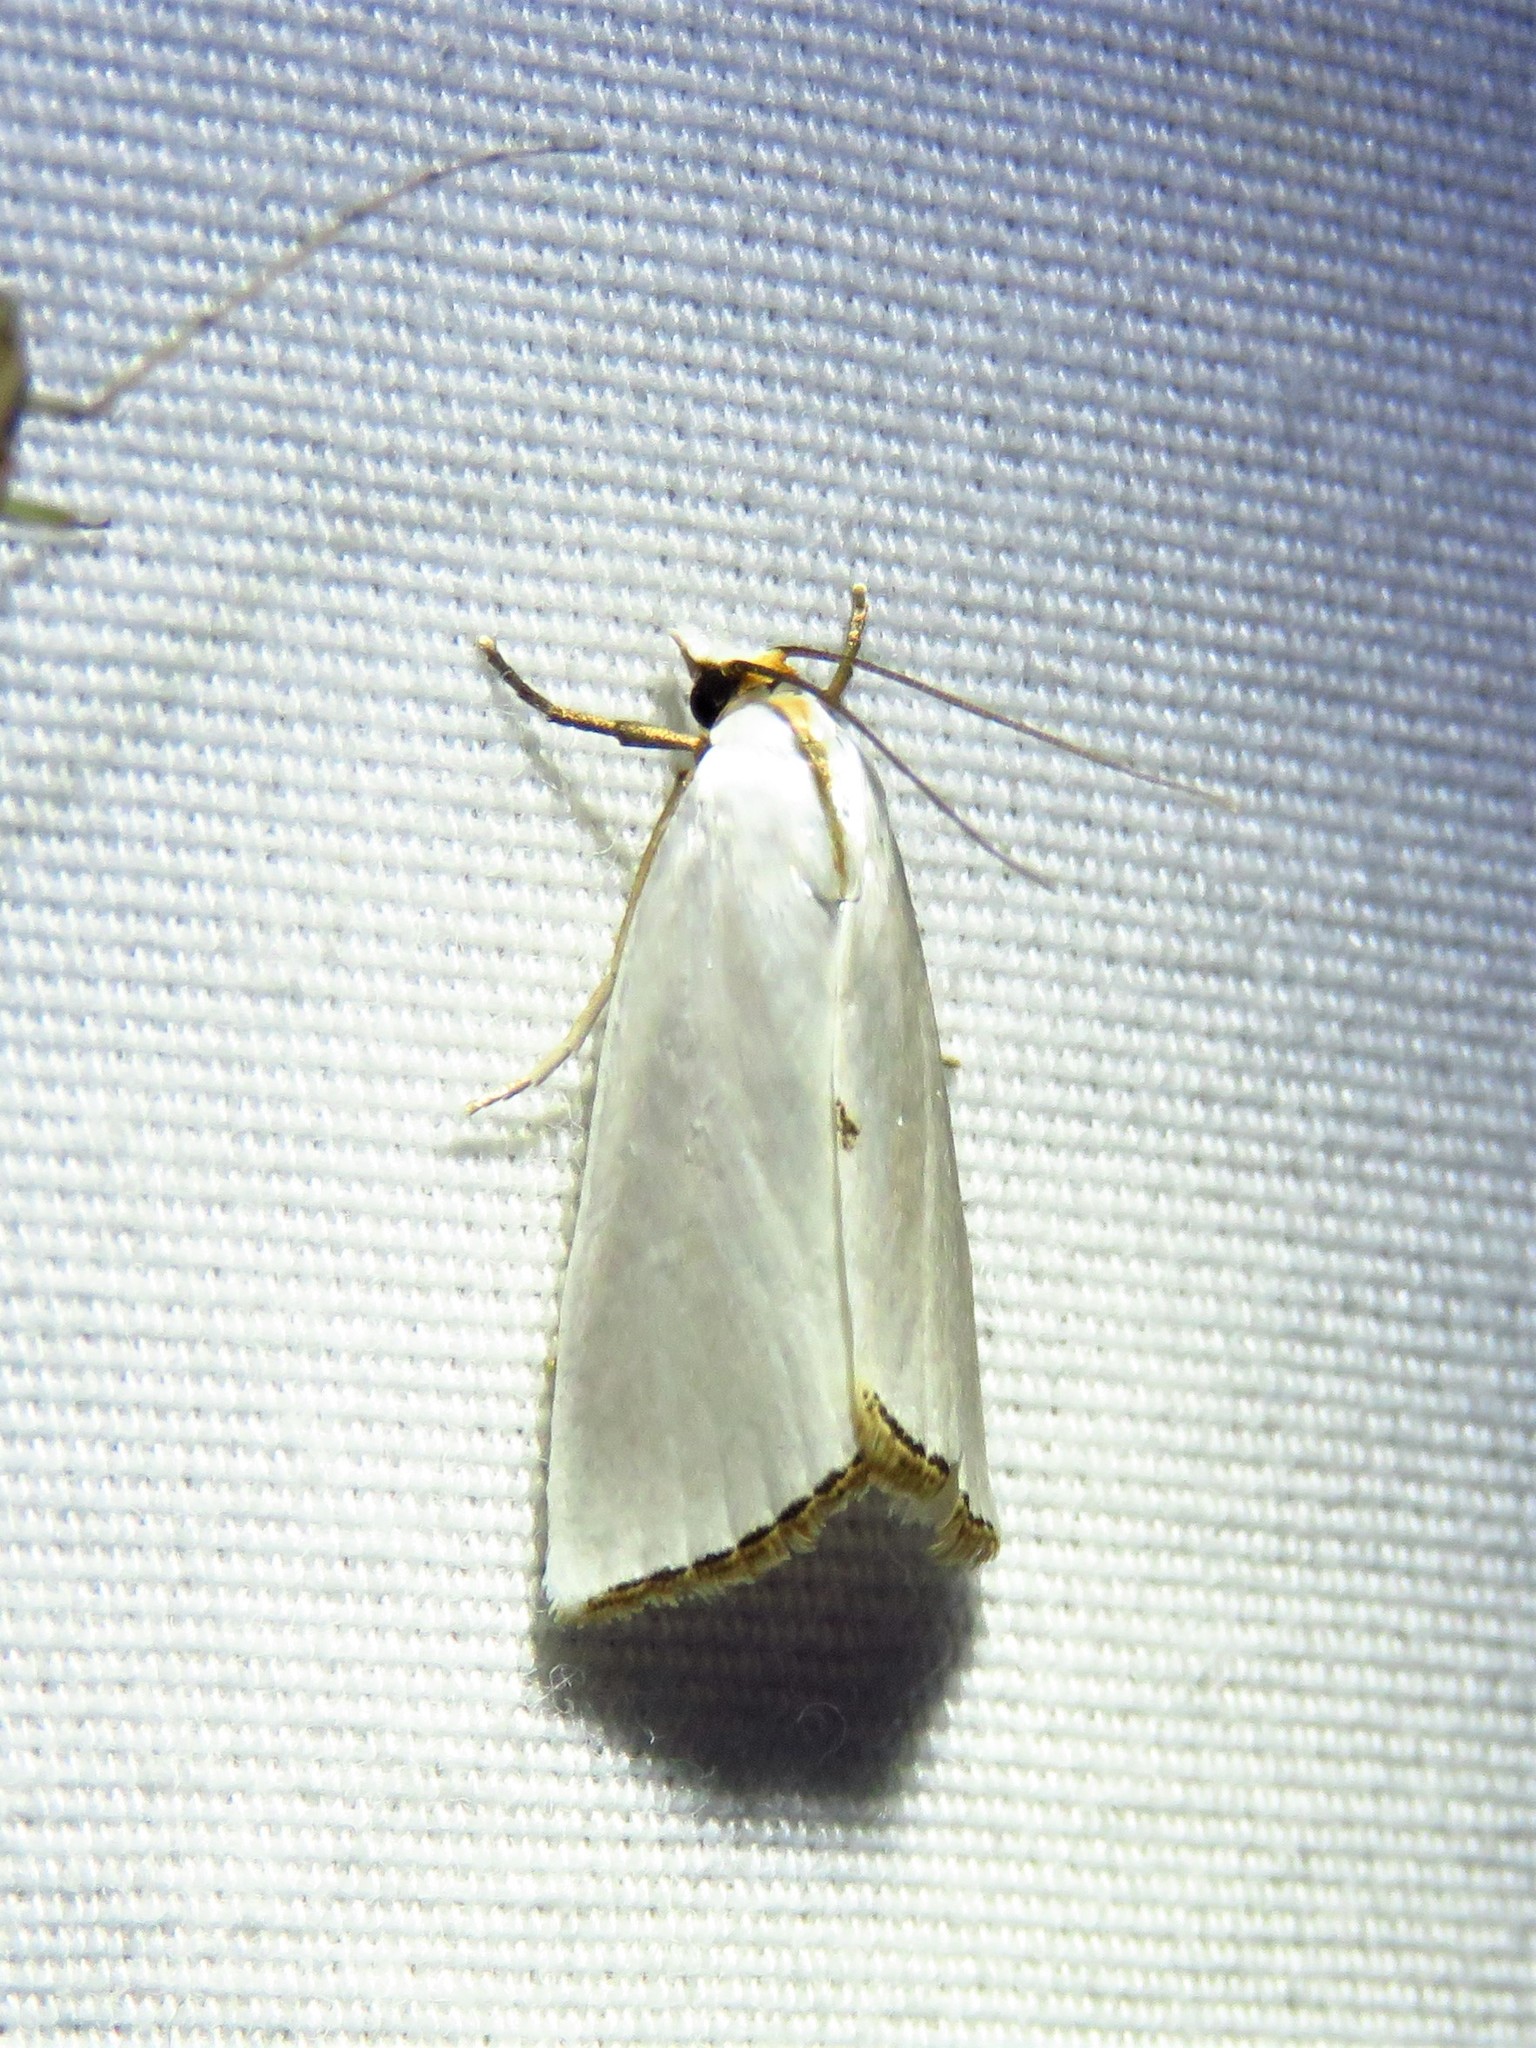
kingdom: Animalia
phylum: Arthropoda
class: Insecta
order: Lepidoptera
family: Crambidae
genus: Argyria
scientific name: Argyria nivalis
